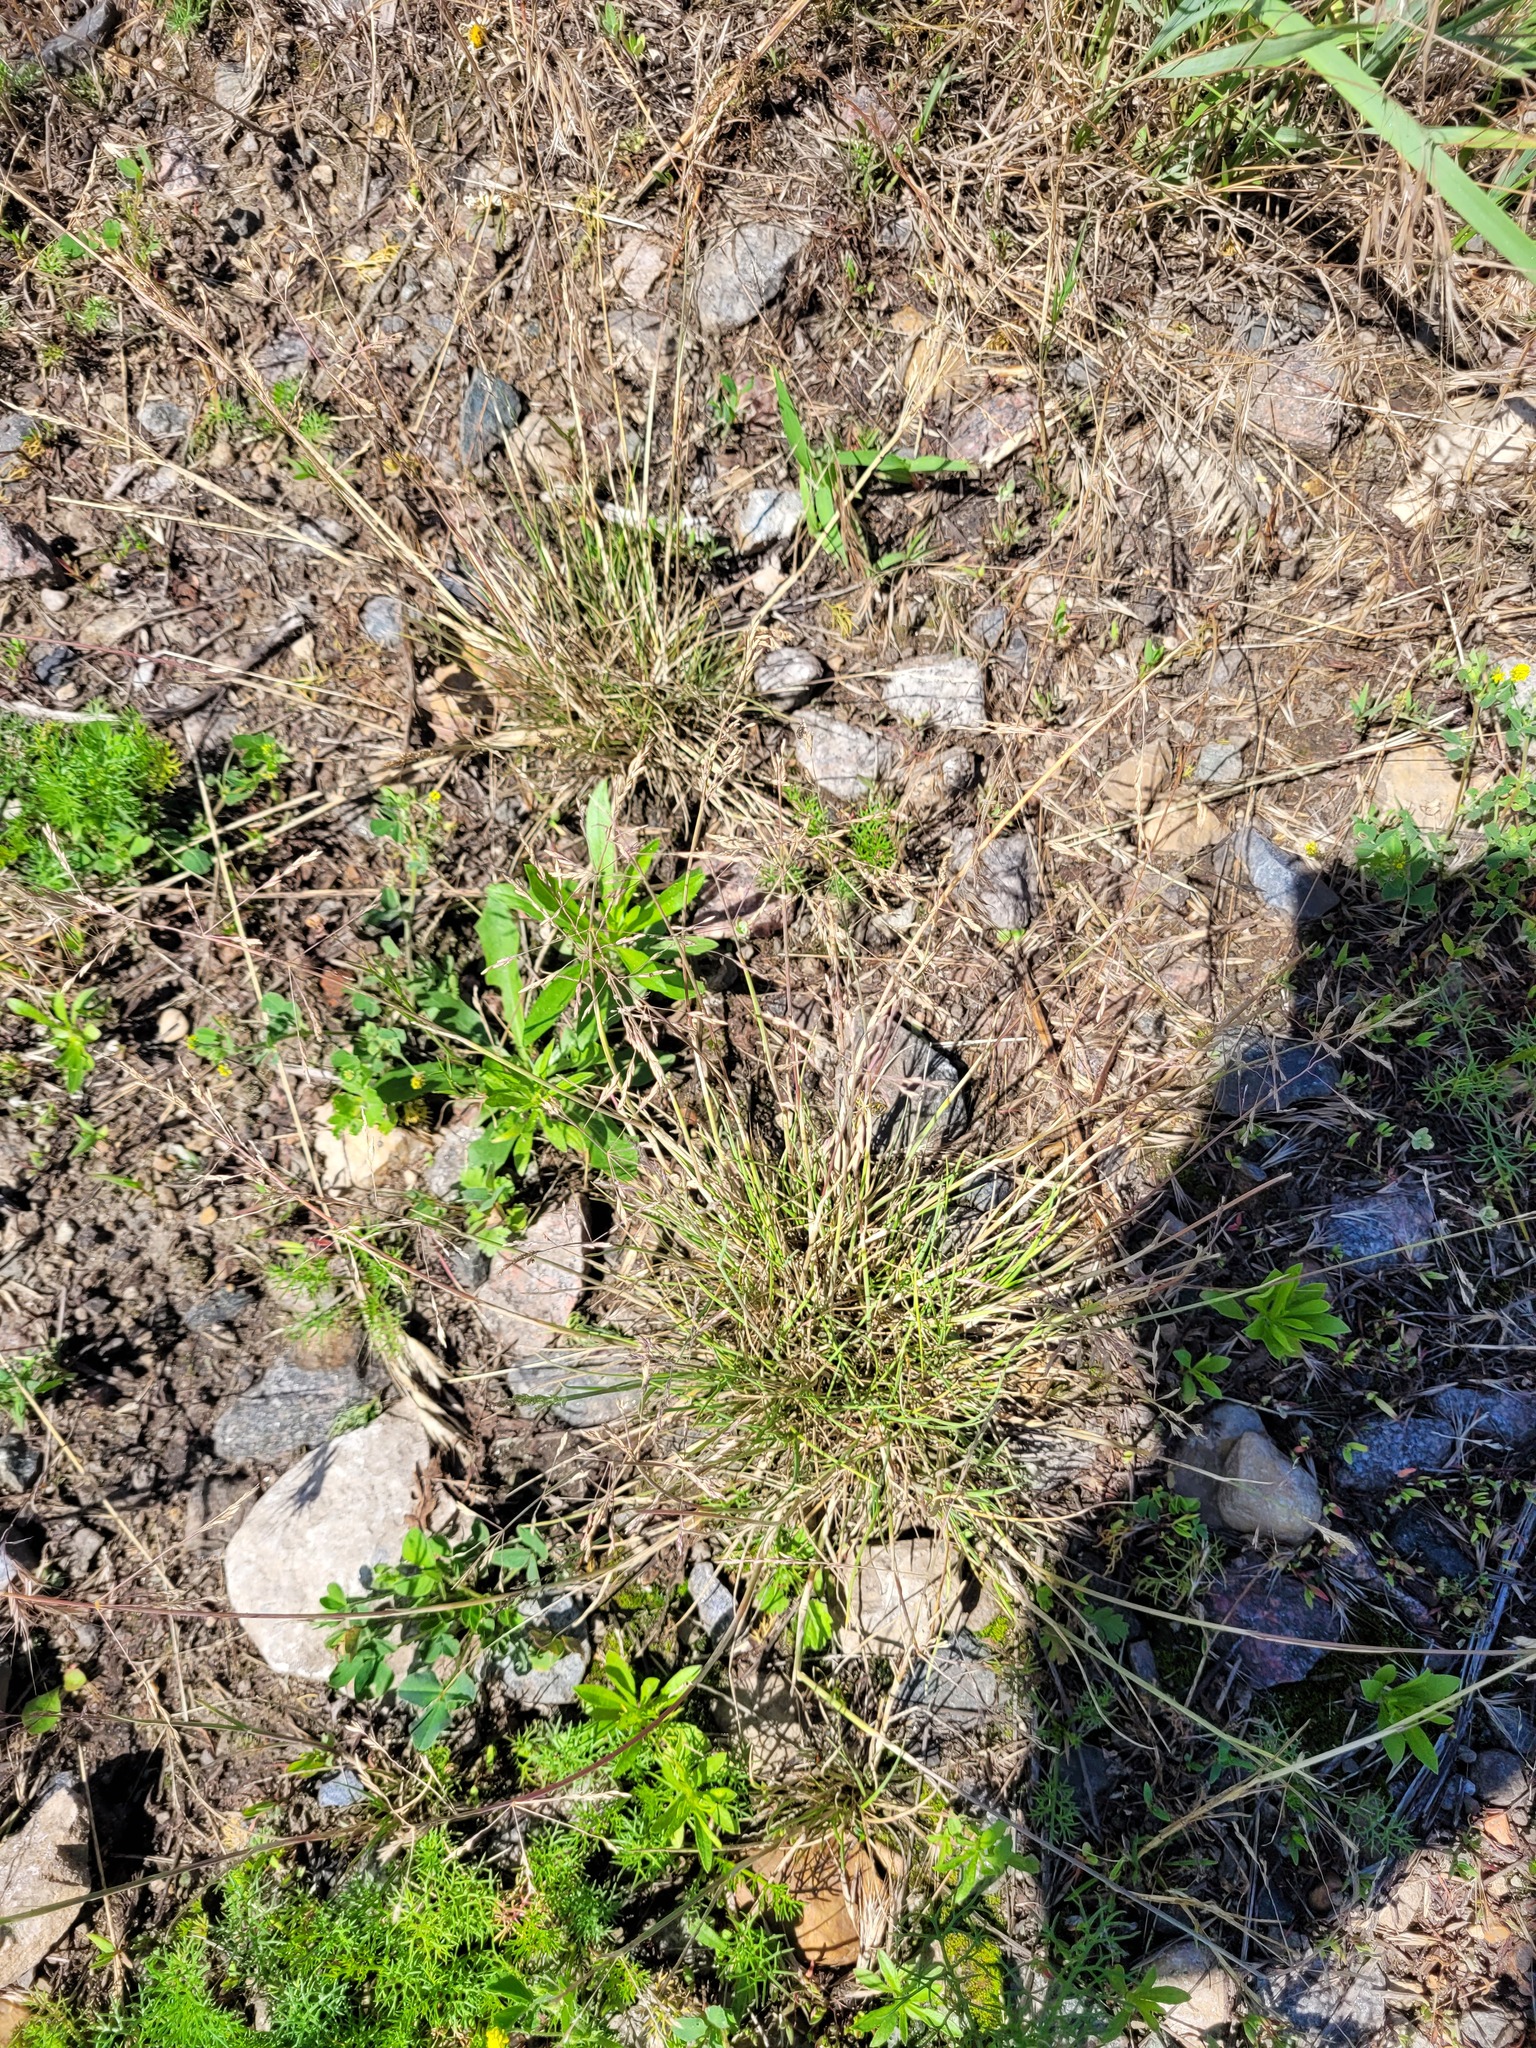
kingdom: Plantae
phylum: Tracheophyta
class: Liliopsida
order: Poales
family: Poaceae
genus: Puccinellia
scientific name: Puccinellia distans
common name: Weeping alkaligrass
